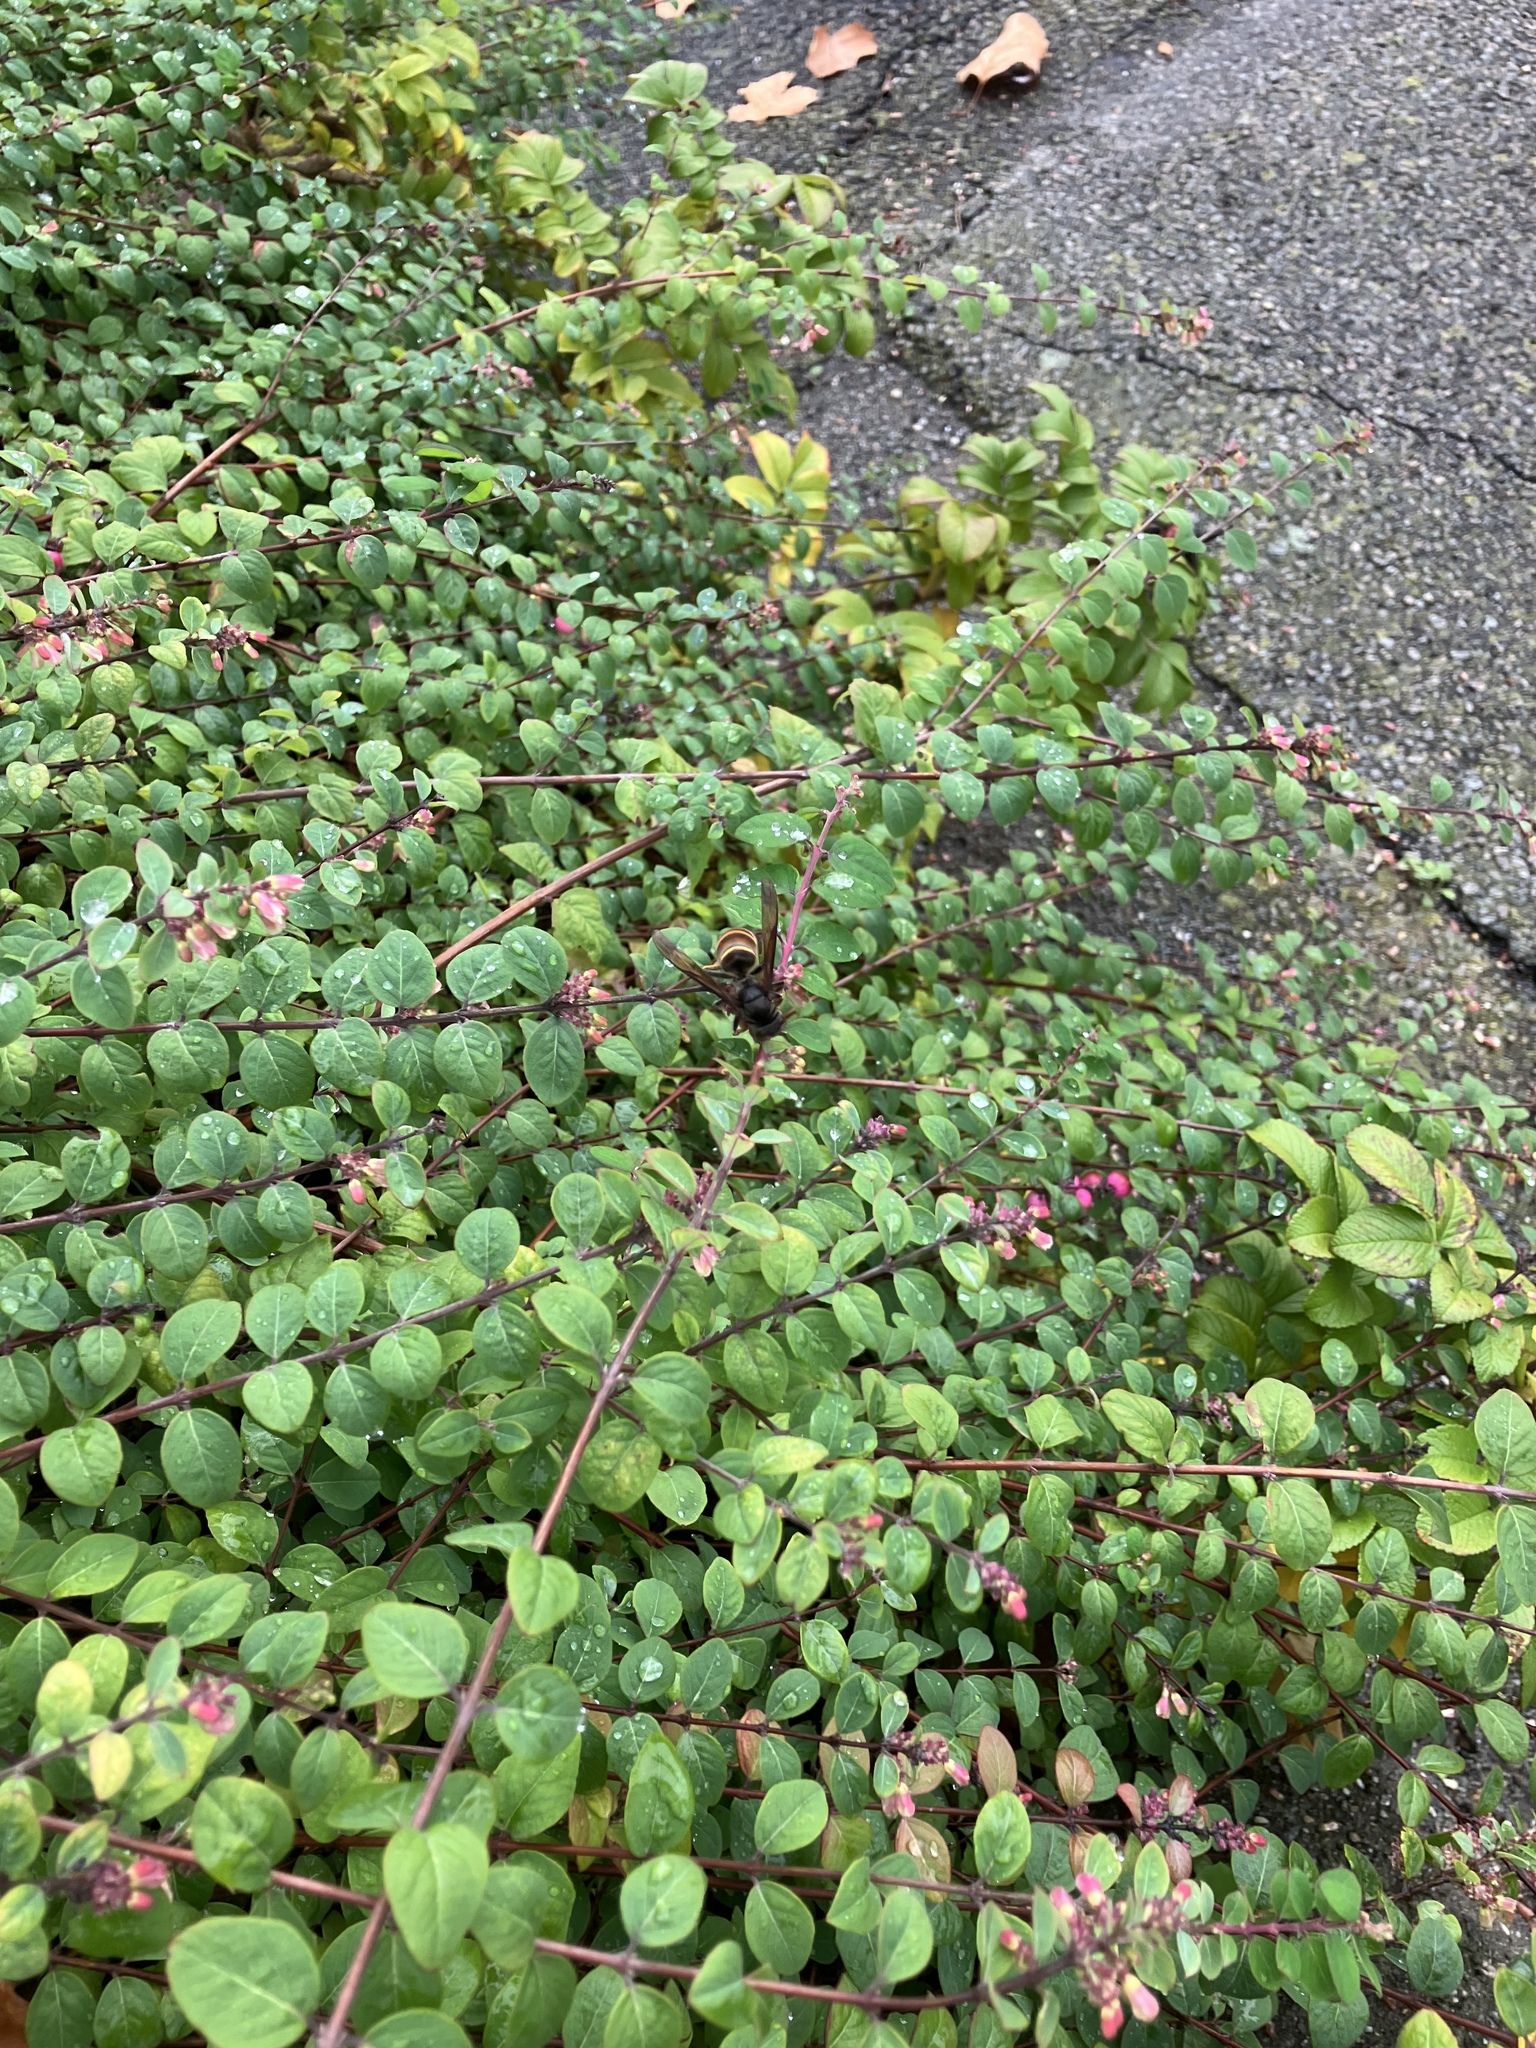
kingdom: Animalia
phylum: Arthropoda
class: Insecta
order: Hymenoptera
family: Vespidae
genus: Vespa
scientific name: Vespa velutina
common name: Asian hornet
